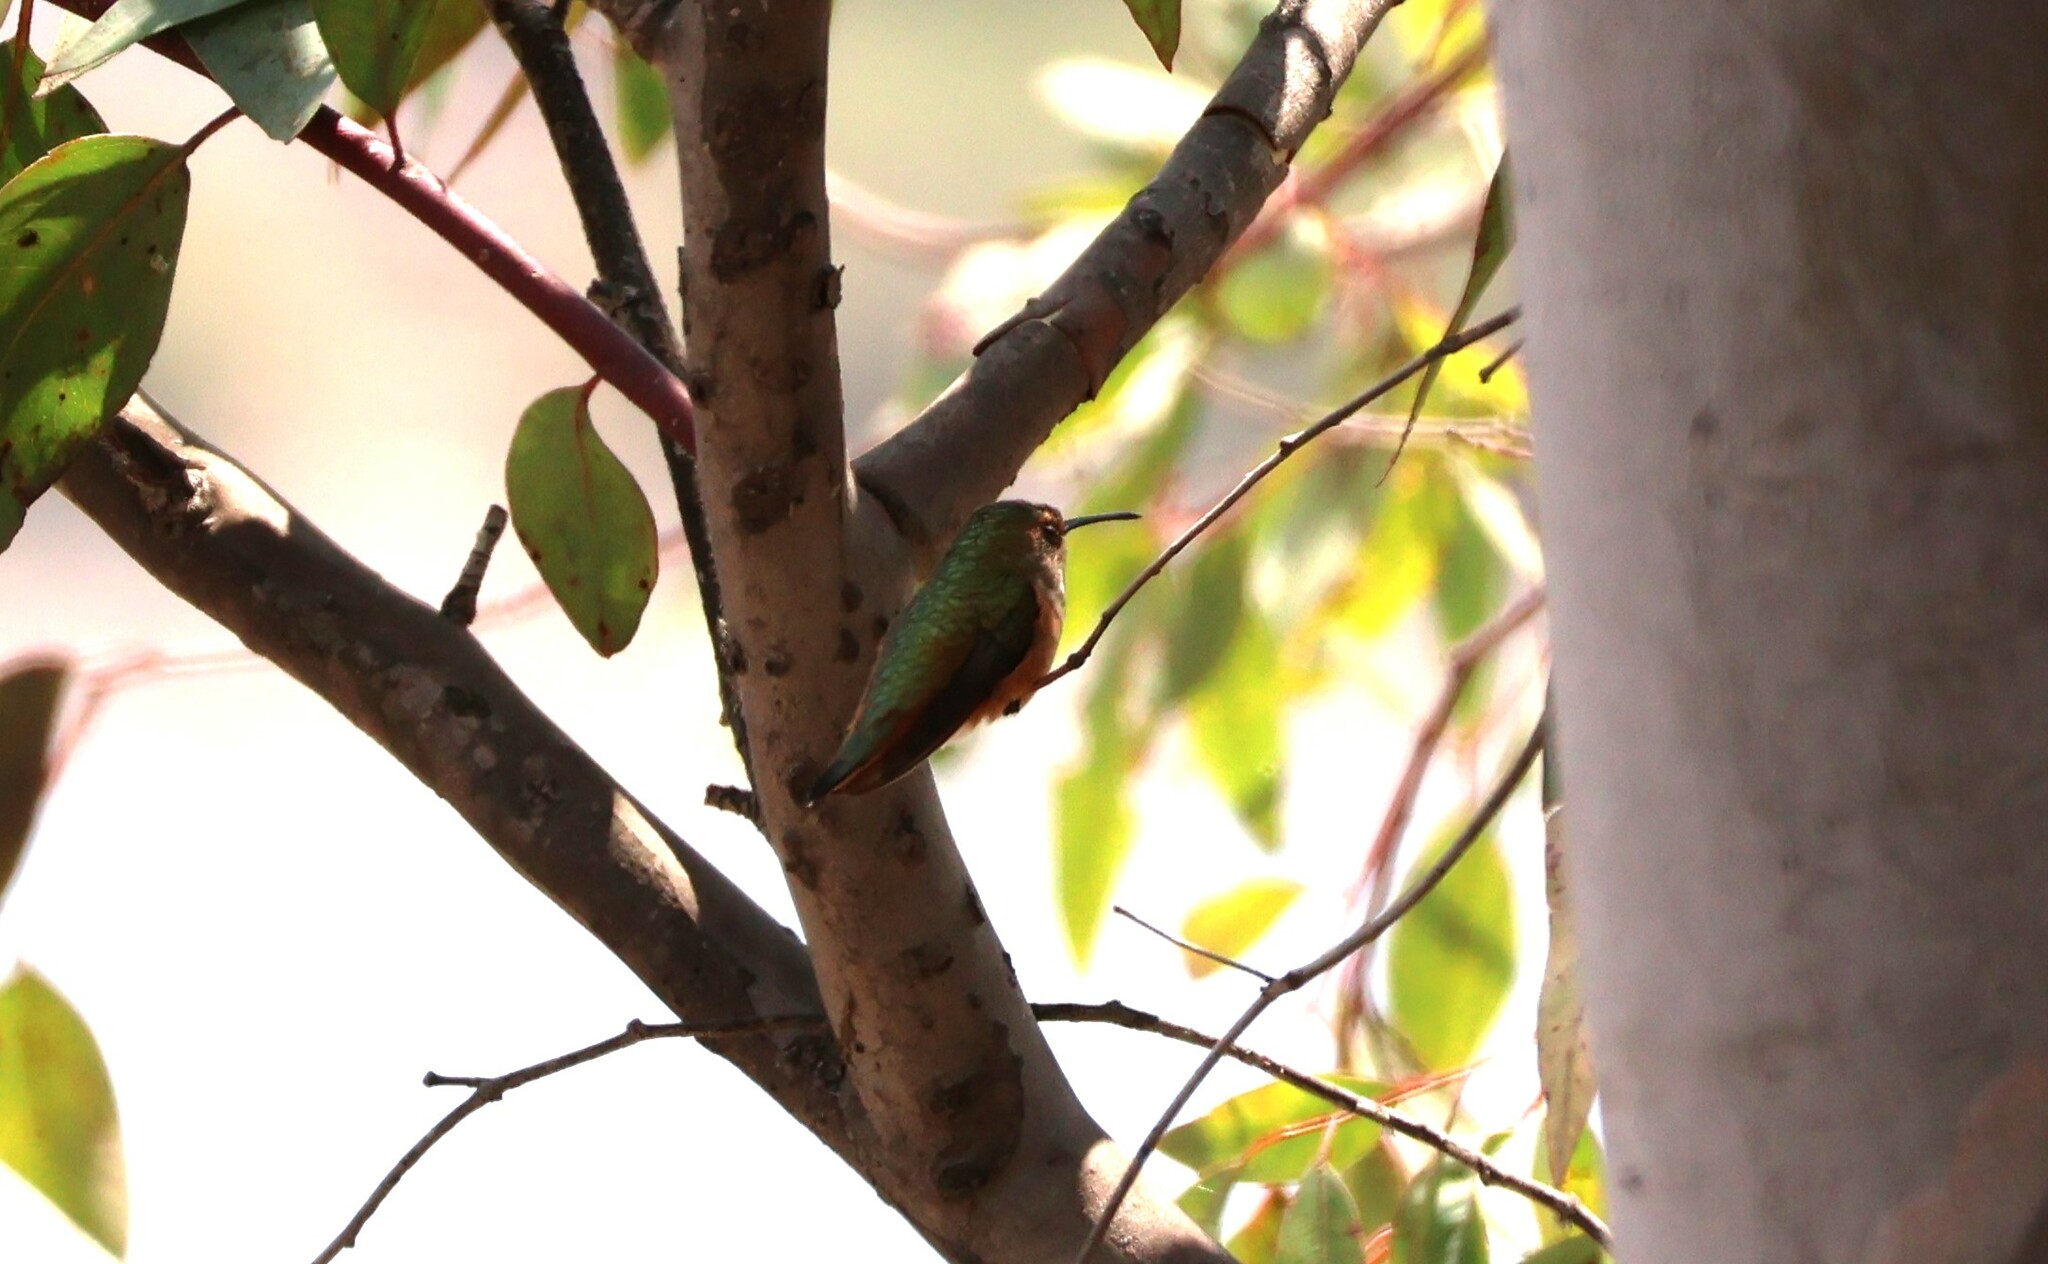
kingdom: Animalia
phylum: Chordata
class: Aves
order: Apodiformes
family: Trochilidae
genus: Selasphorus
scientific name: Selasphorus
